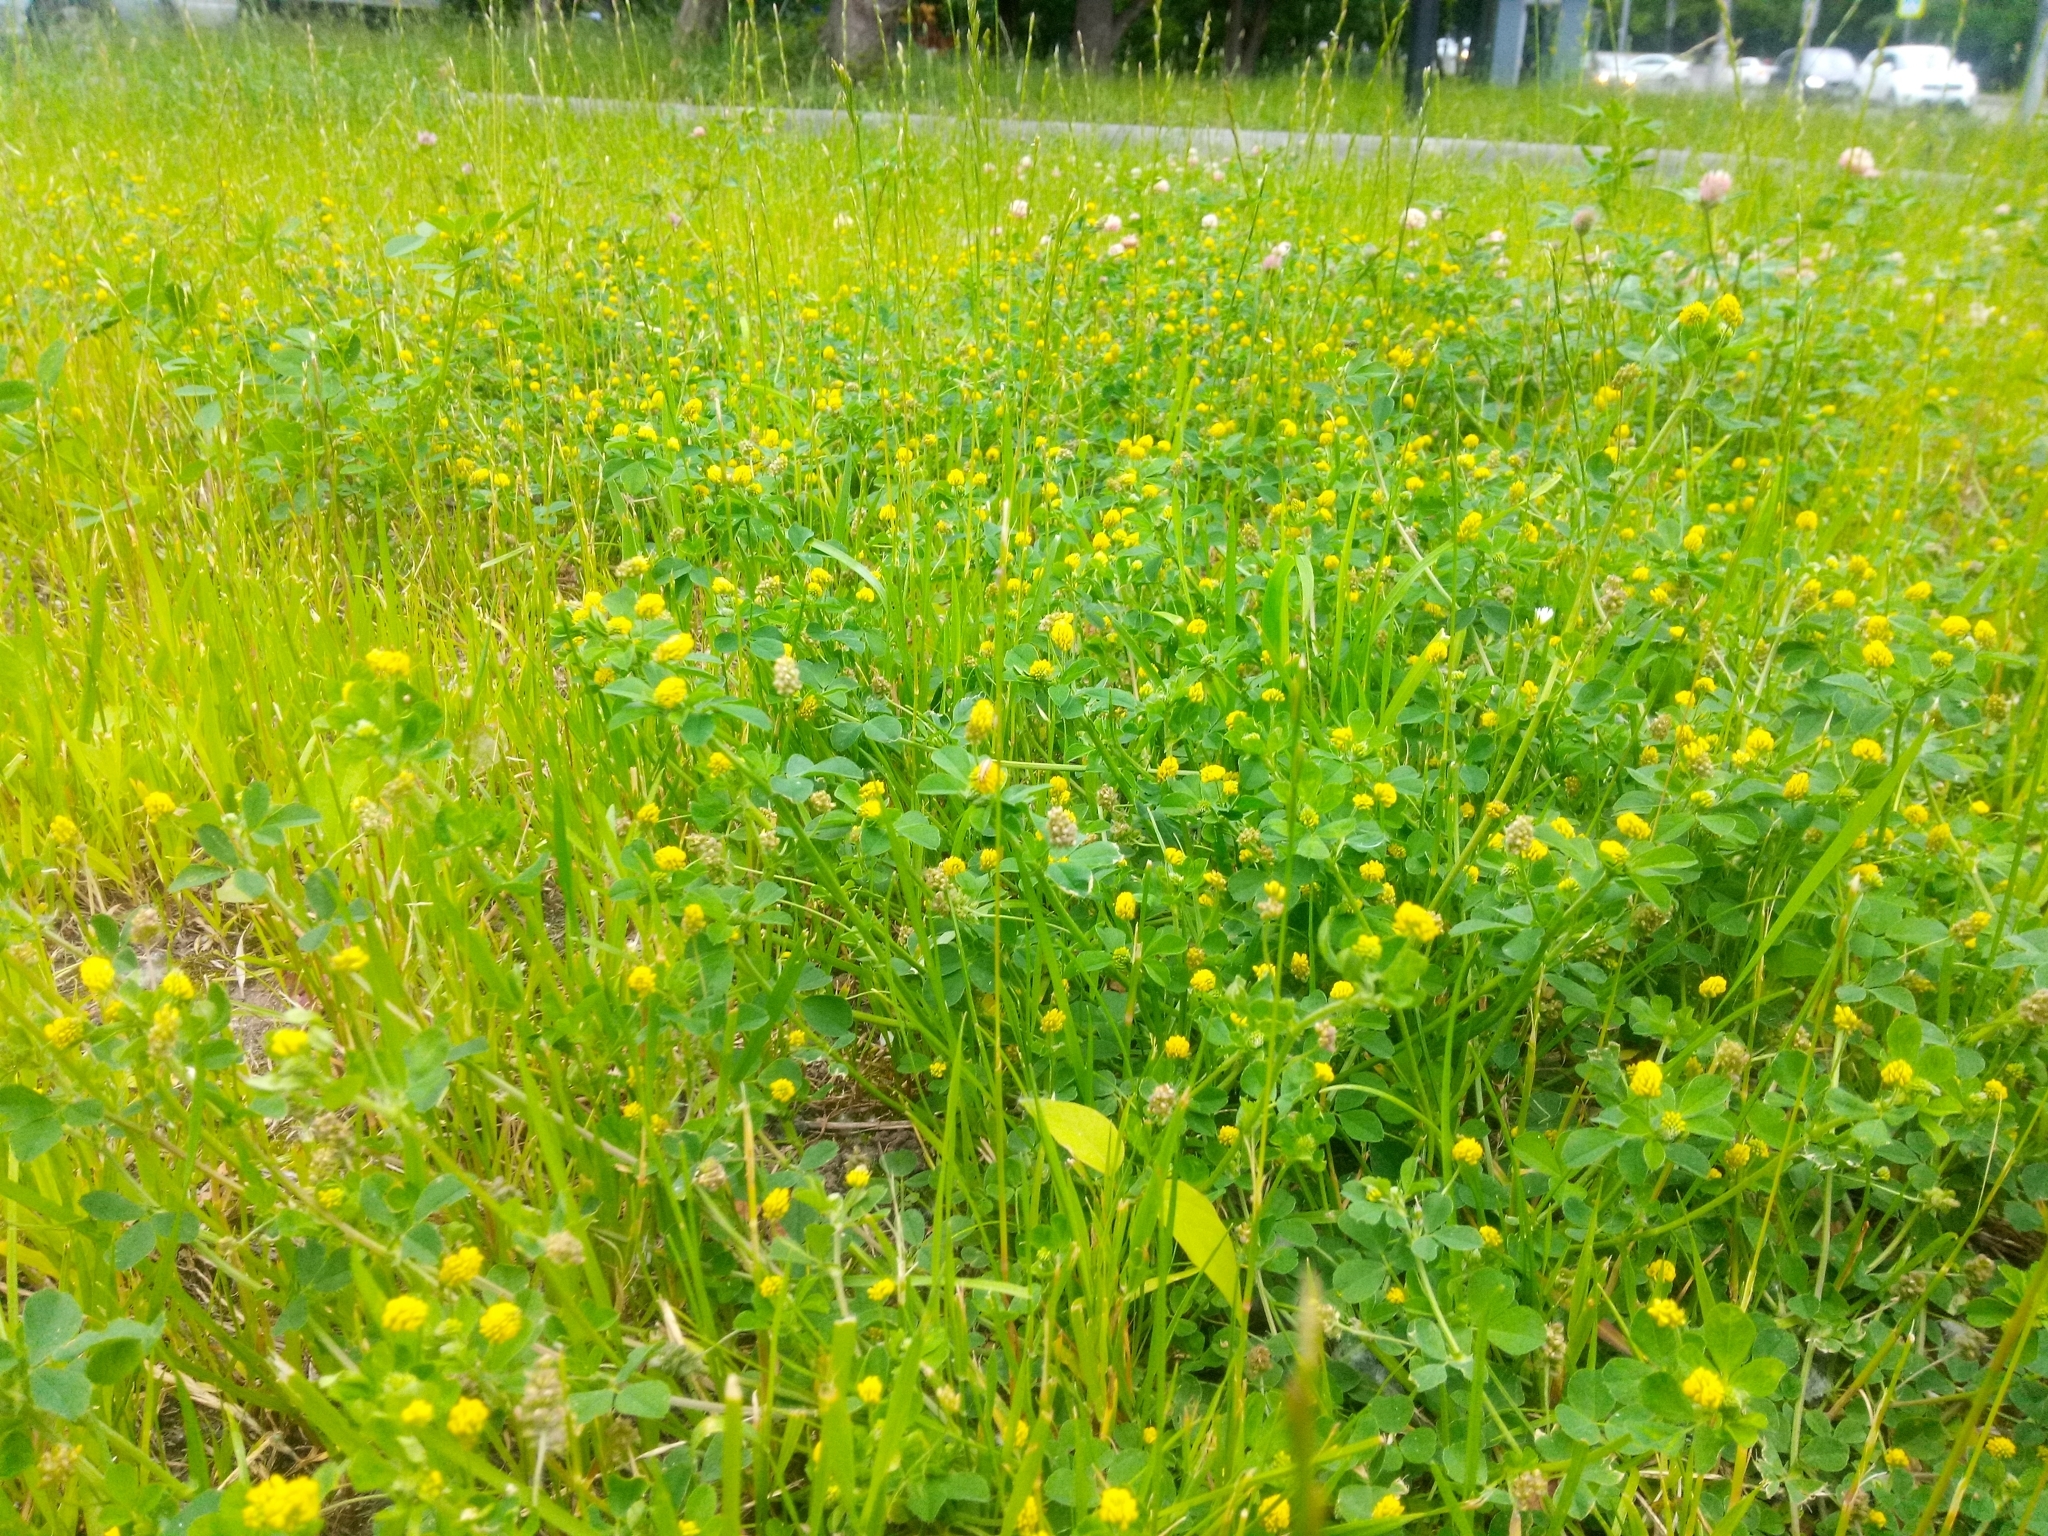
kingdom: Plantae
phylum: Tracheophyta
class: Magnoliopsida
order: Fabales
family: Fabaceae
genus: Medicago
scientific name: Medicago lupulina
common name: Black medick
